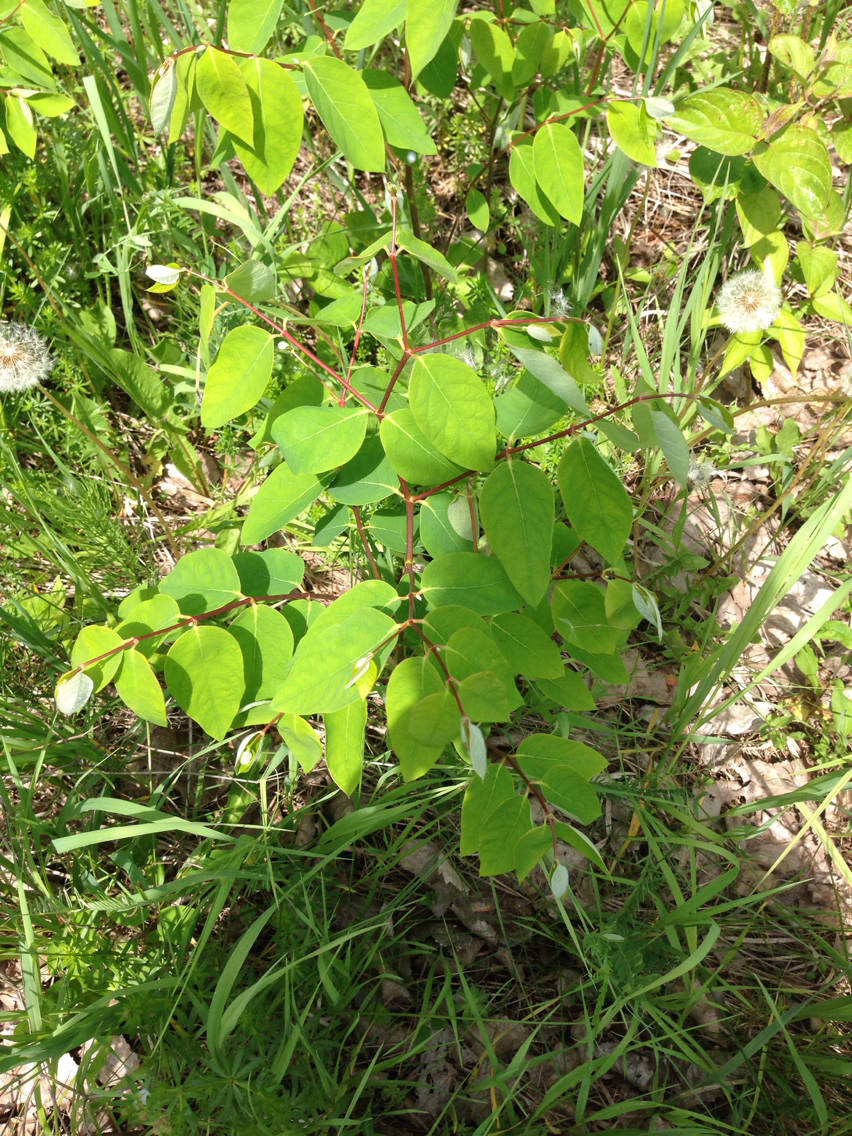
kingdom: Plantae
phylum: Tracheophyta
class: Magnoliopsida
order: Gentianales
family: Apocynaceae
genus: Apocynum
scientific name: Apocynum androsaemifolium
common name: Spreading dogbane
